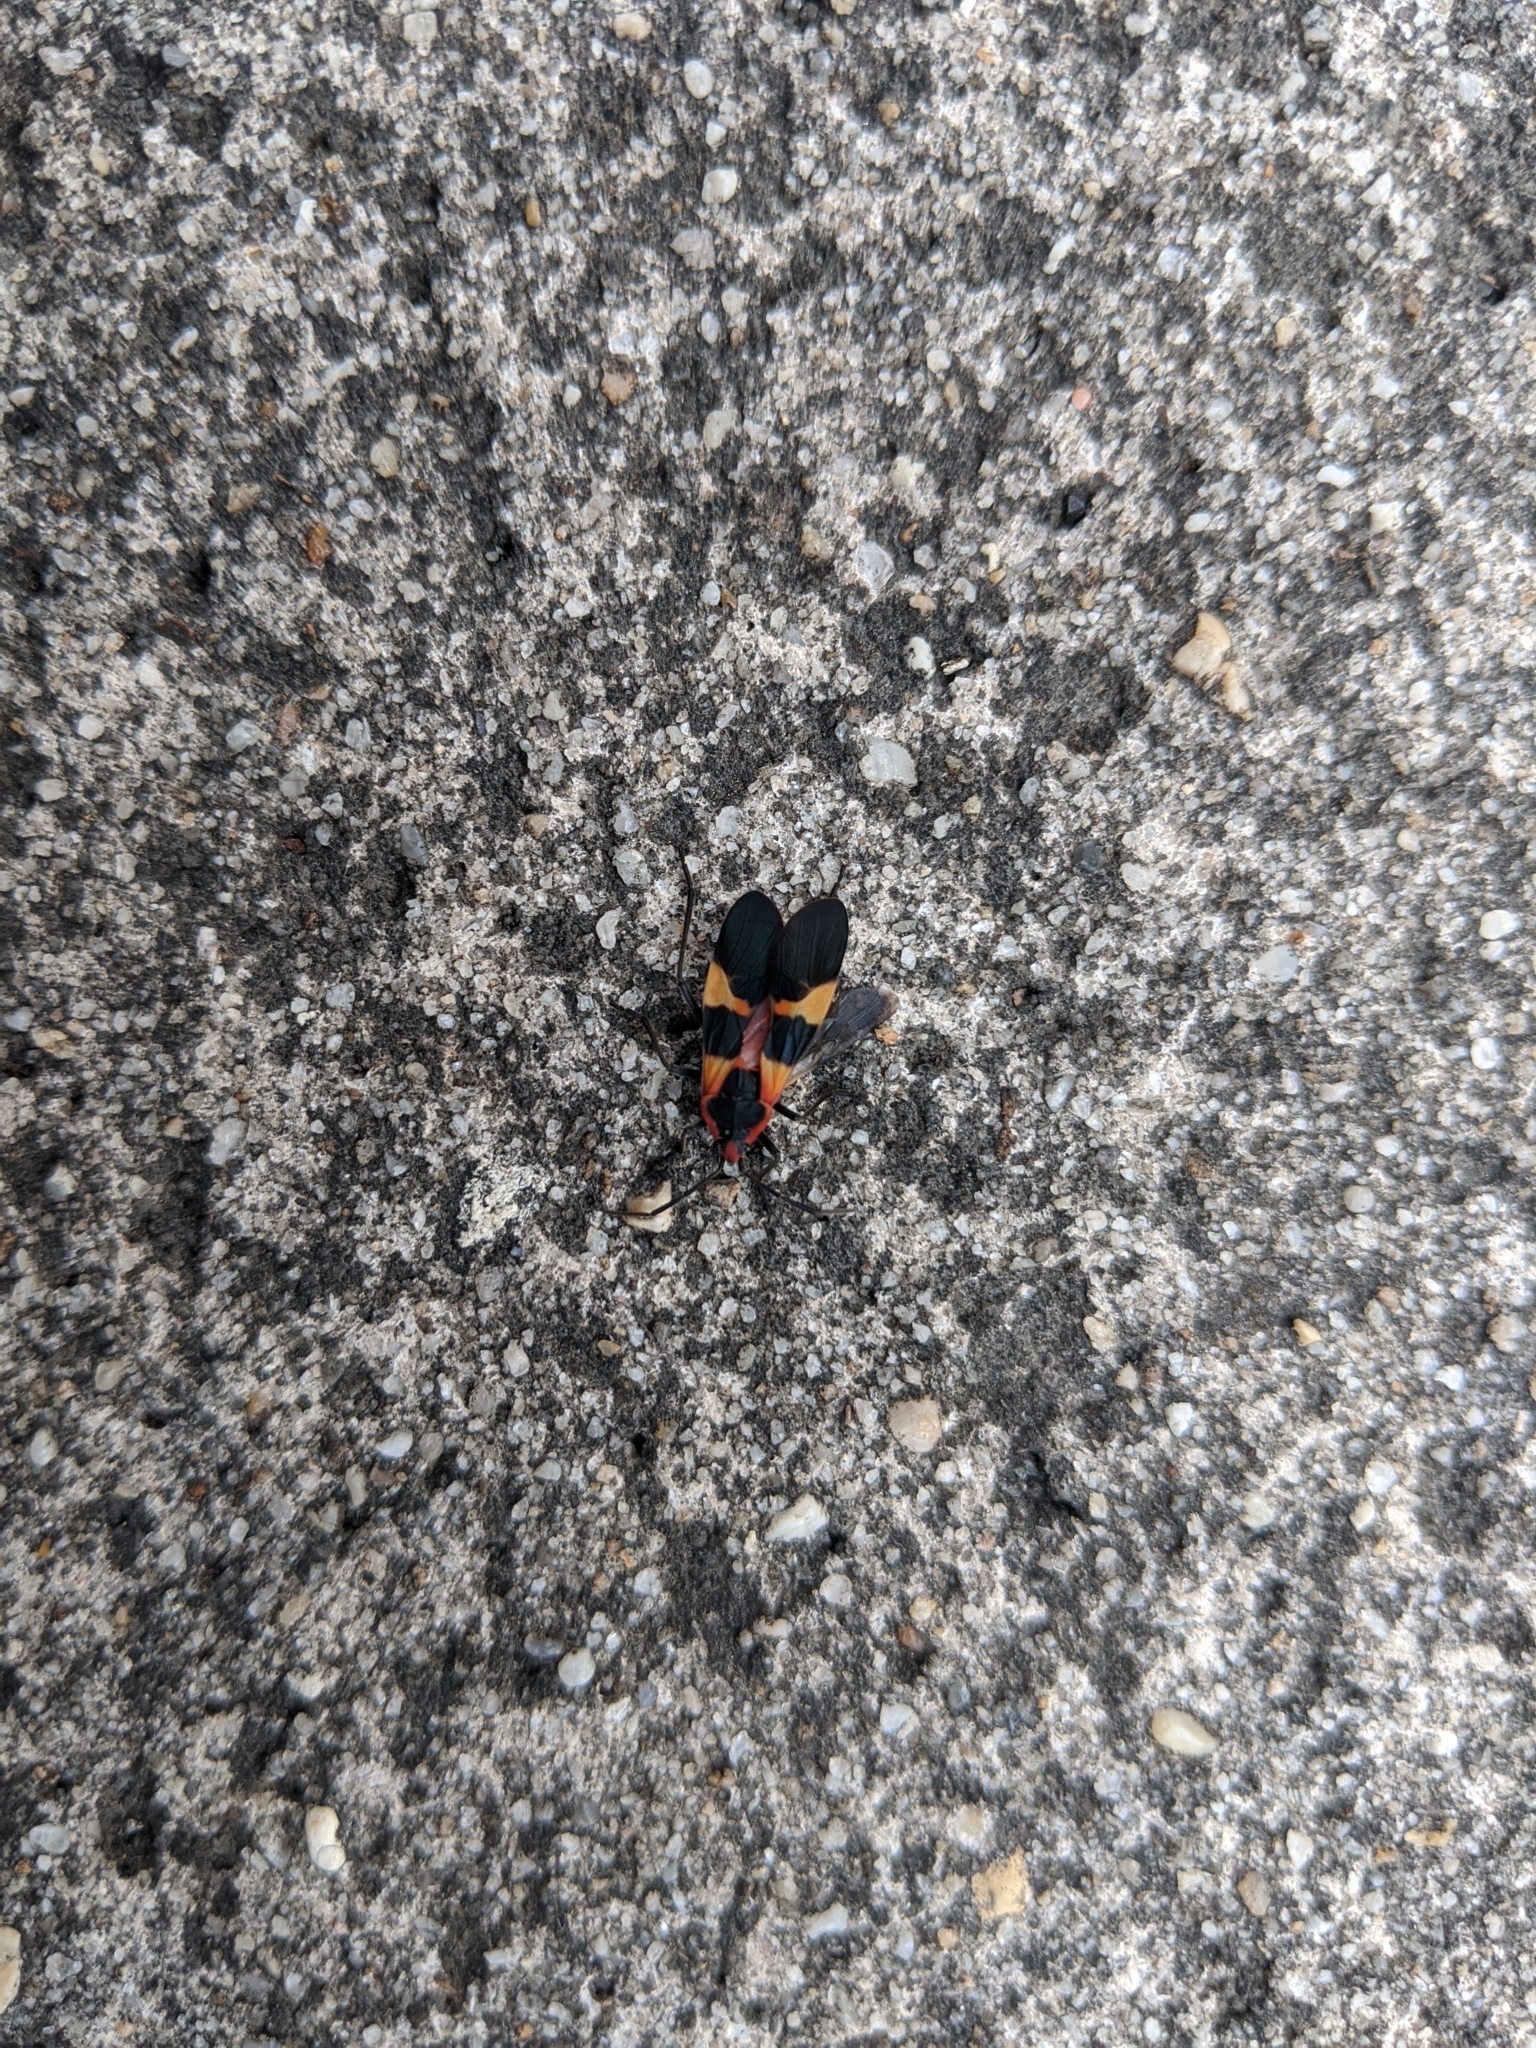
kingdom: Animalia
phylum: Arthropoda
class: Insecta
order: Hemiptera
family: Lygaeidae
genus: Oncopeltus
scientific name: Oncopeltus fasciatus
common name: Large milkweed bug
